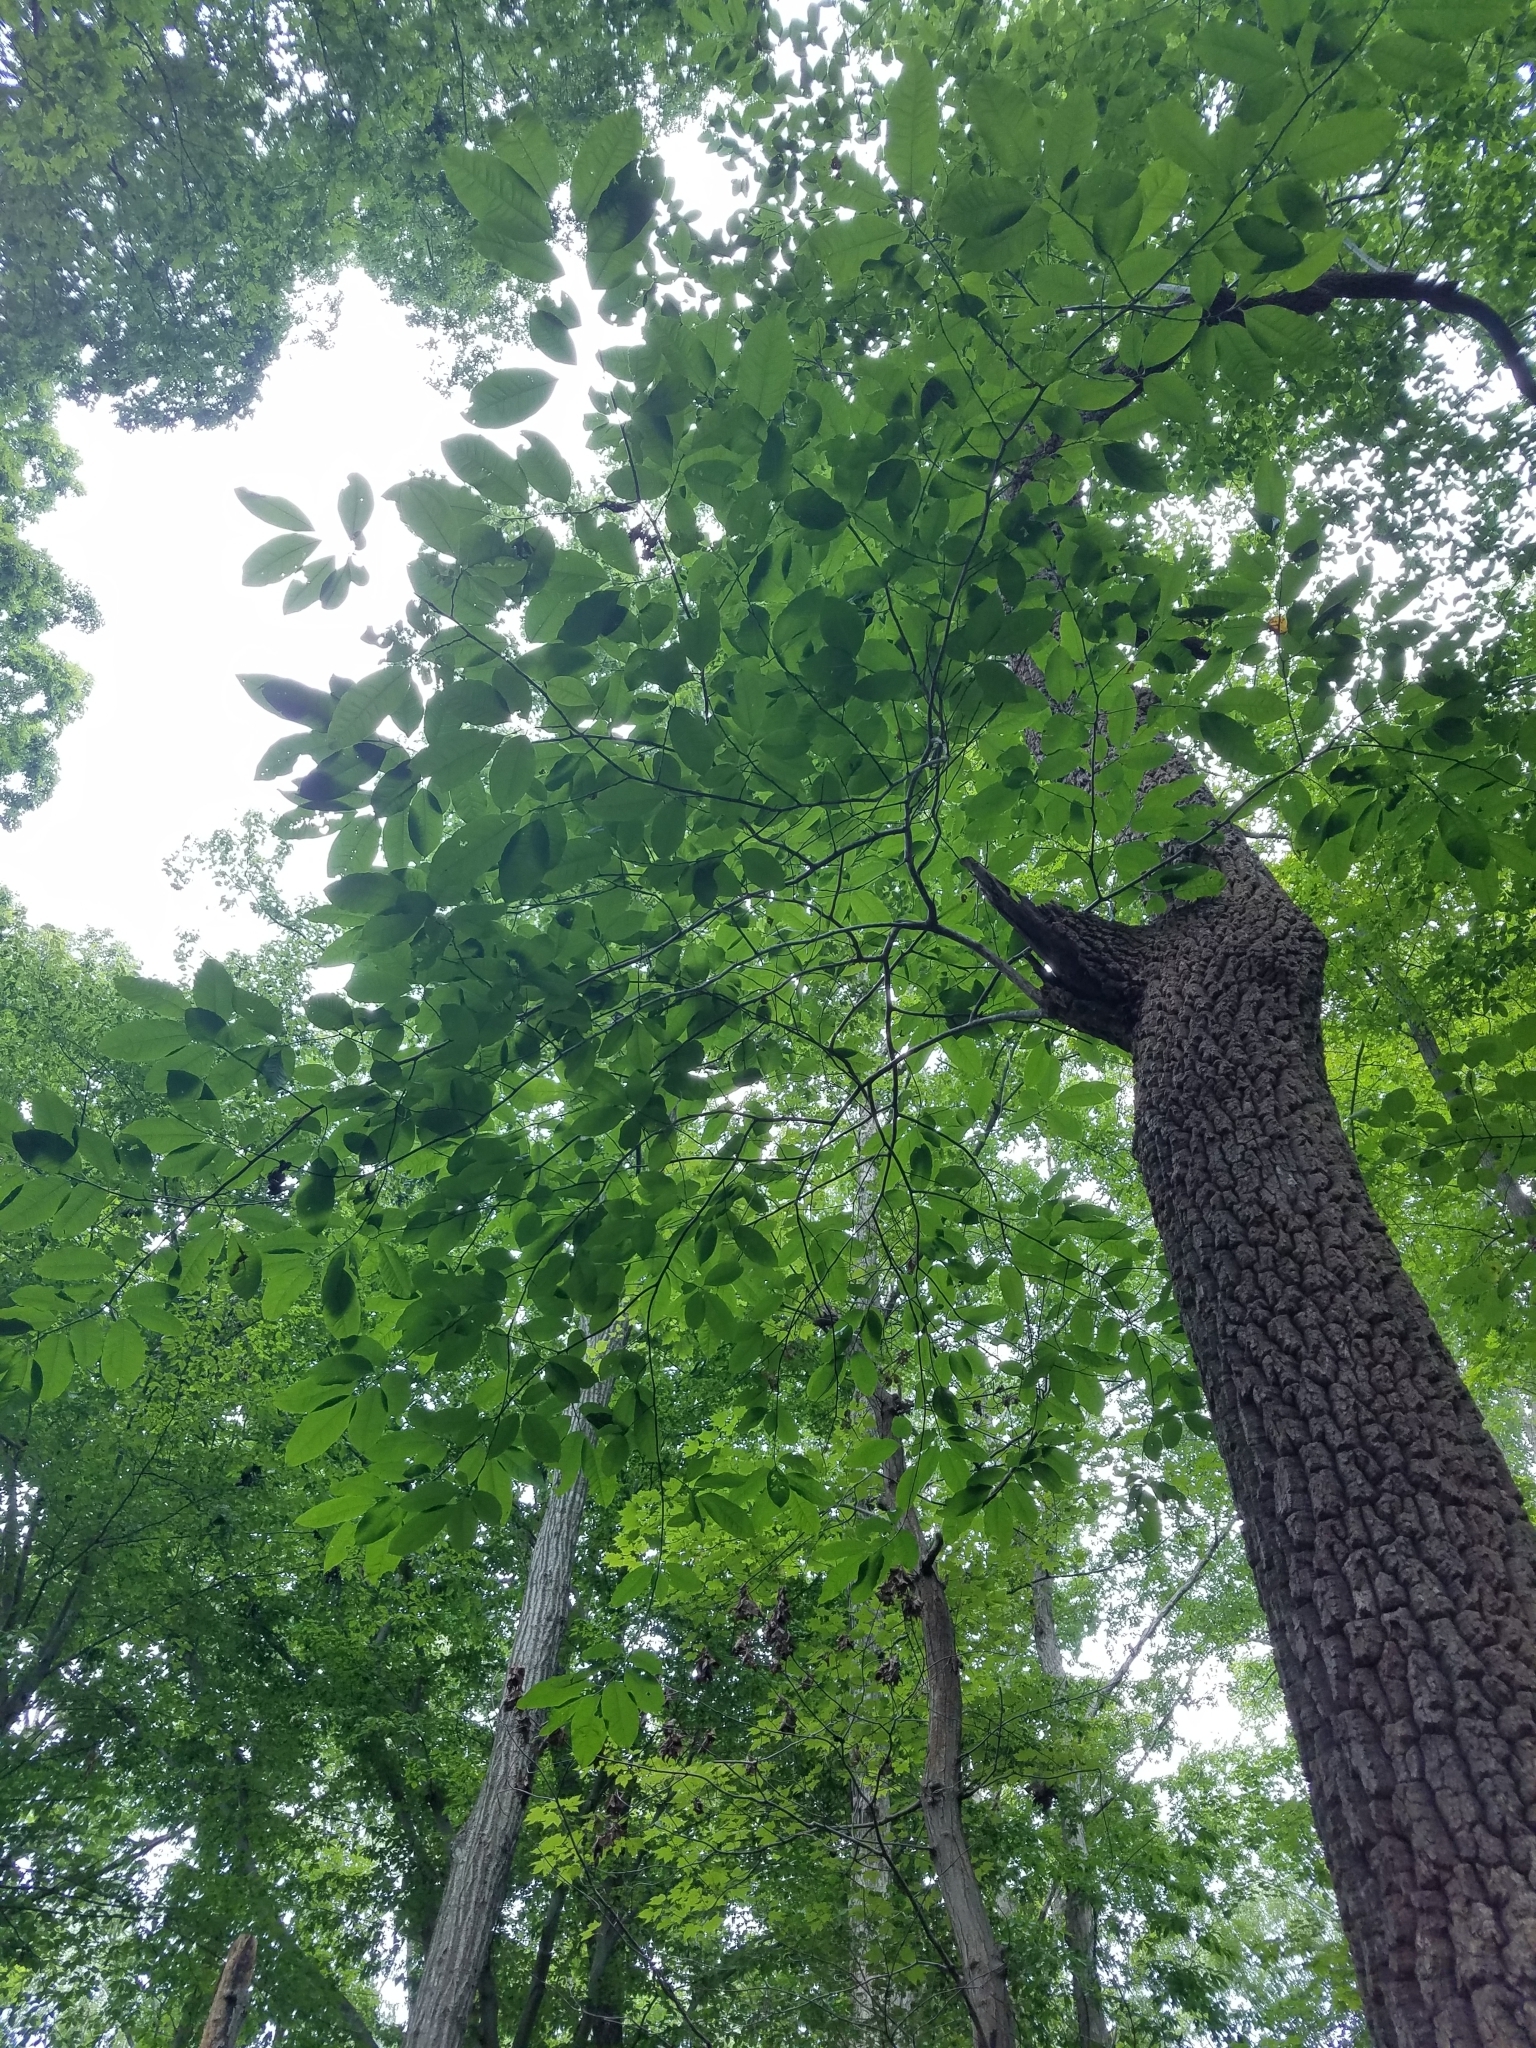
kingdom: Plantae
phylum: Tracheophyta
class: Magnoliopsida
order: Ericales
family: Ericaceae
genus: Oxydendrum
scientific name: Oxydendrum arboreum
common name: Sourwood
